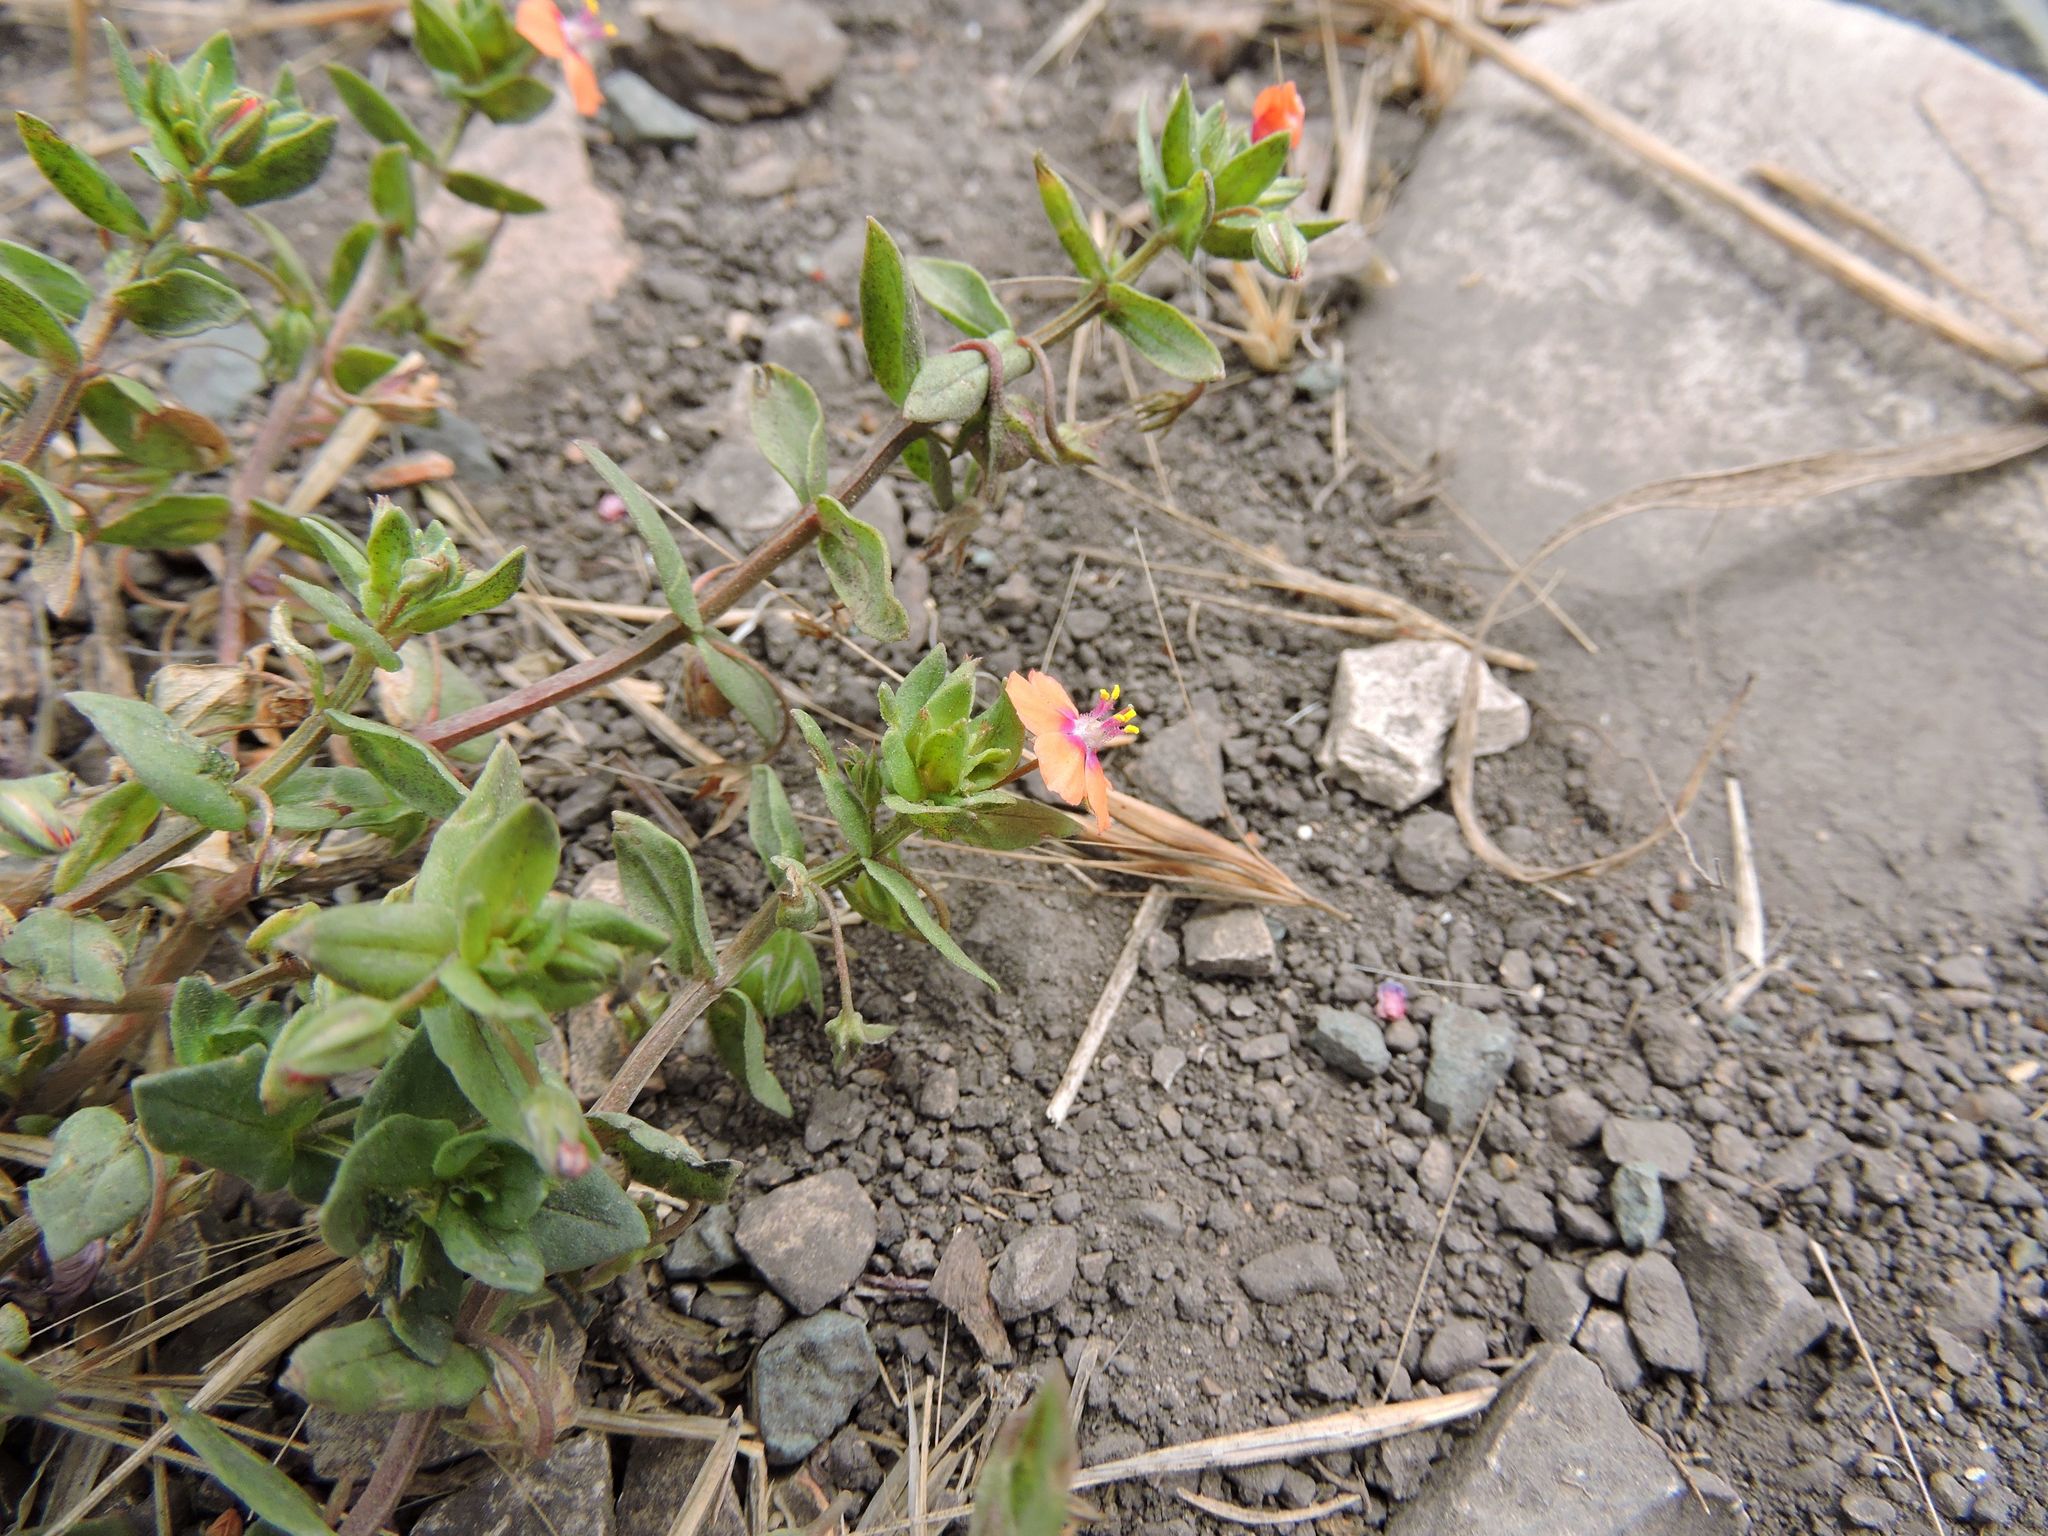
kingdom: Plantae
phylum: Tracheophyta
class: Magnoliopsida
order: Ericales
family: Primulaceae
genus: Lysimachia
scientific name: Lysimachia arvensis
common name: Scarlet pimpernel
